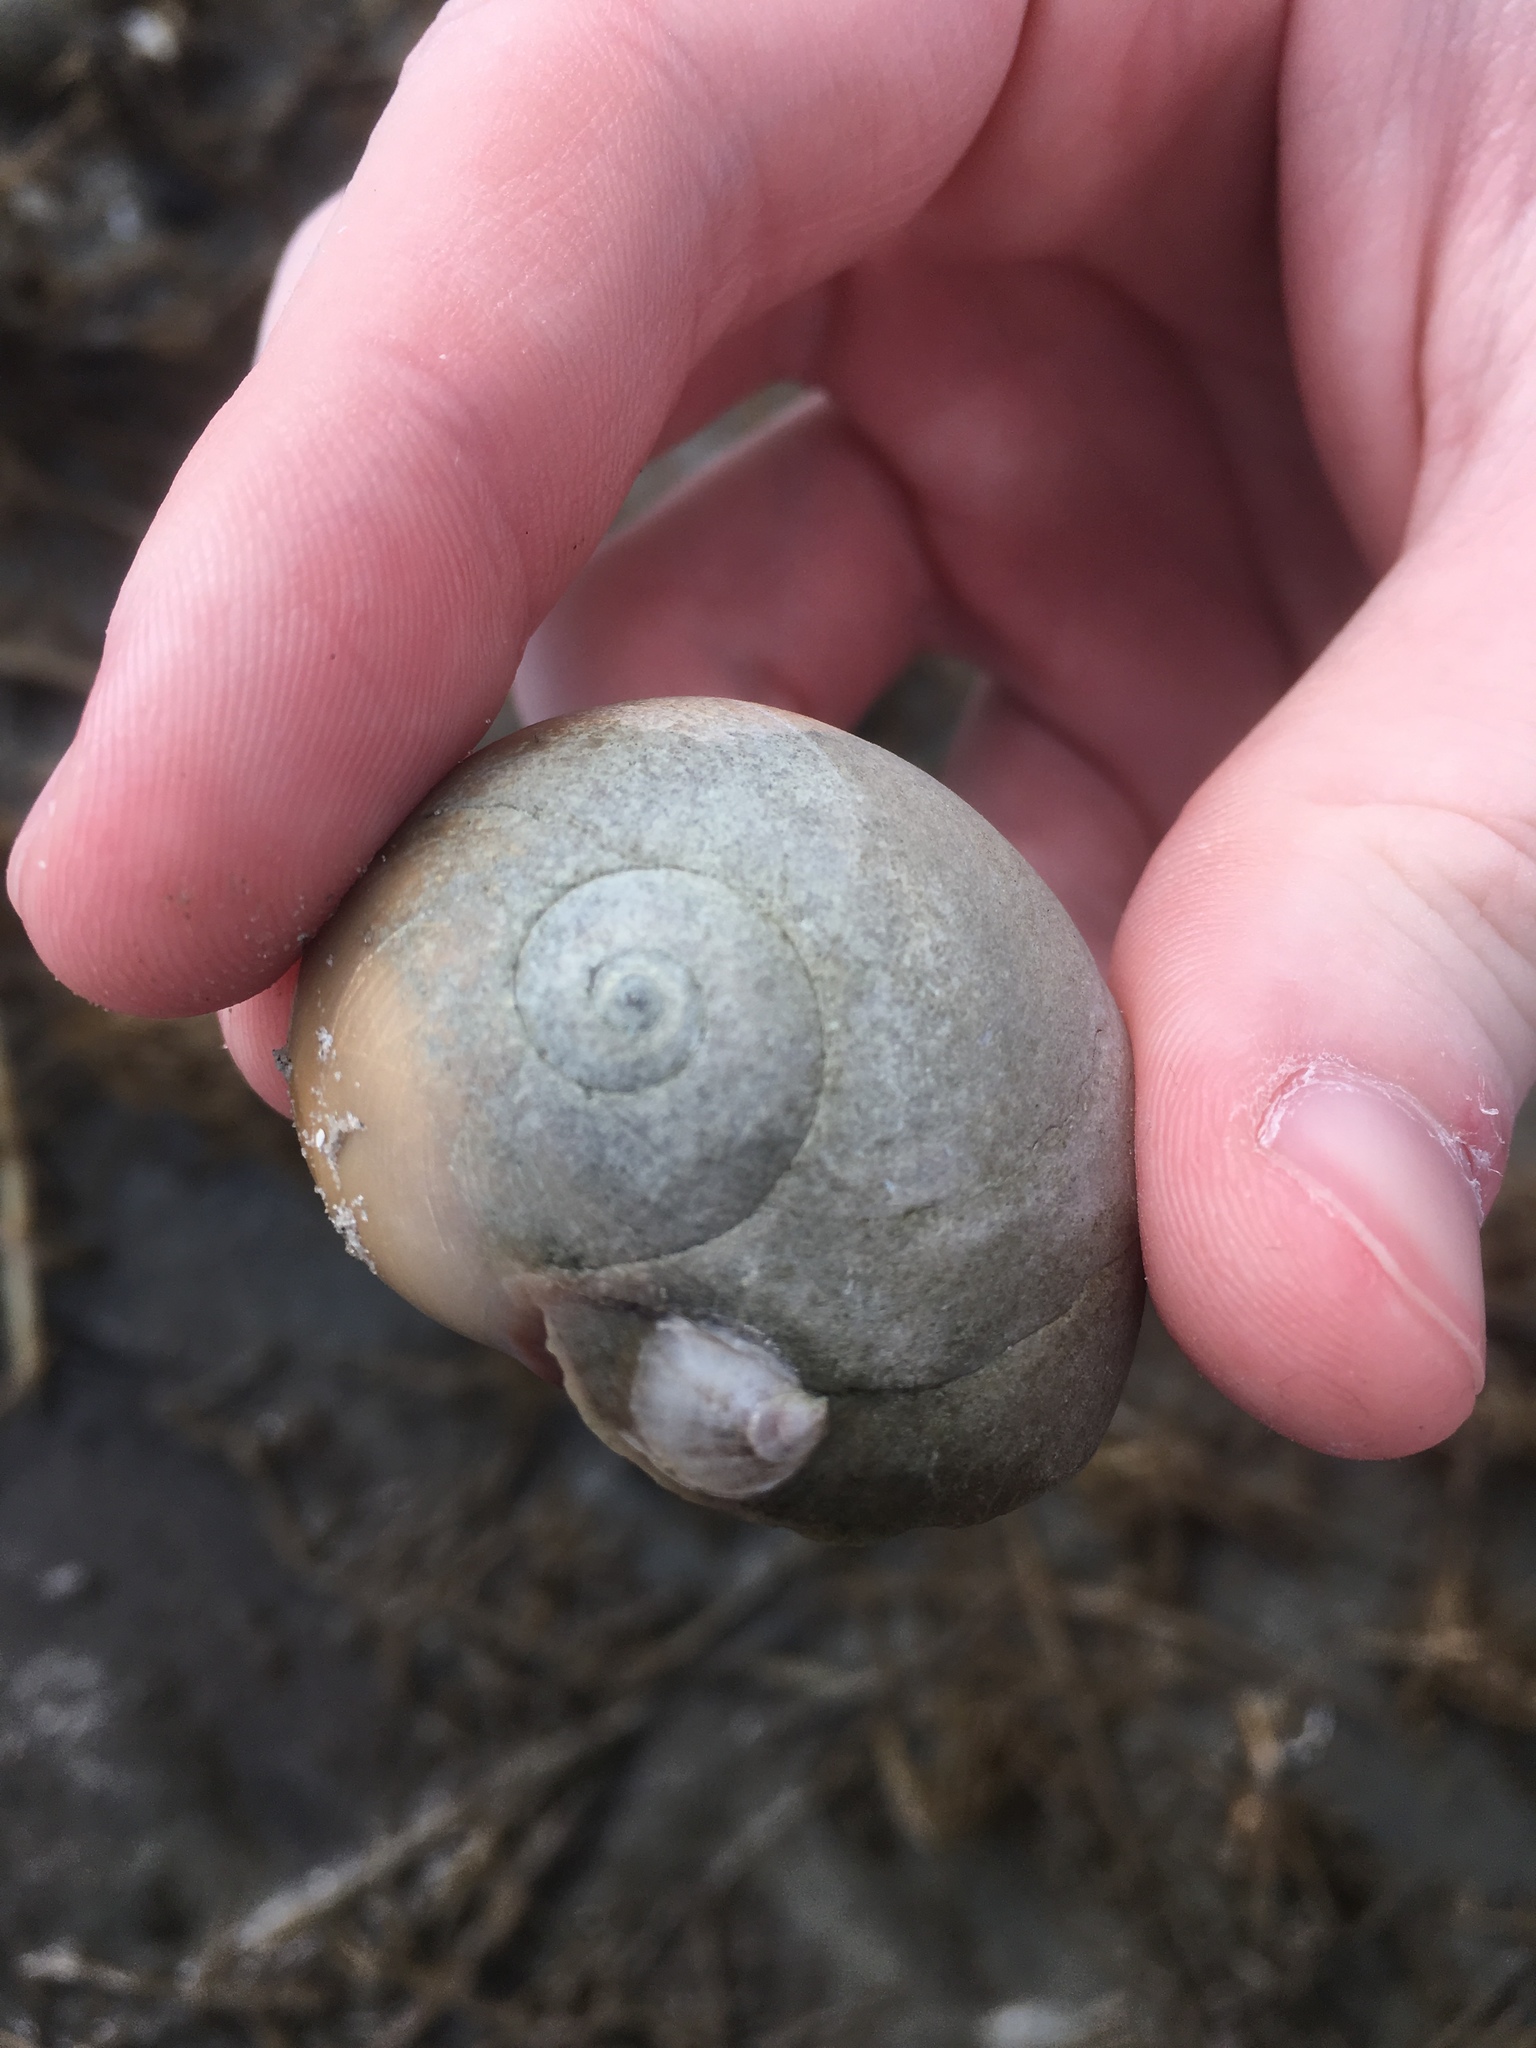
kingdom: Animalia
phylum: Mollusca
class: Gastropoda
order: Littorinimorpha
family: Naticidae
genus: Neverita
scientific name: Neverita duplicata
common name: Lobed moonsnail
